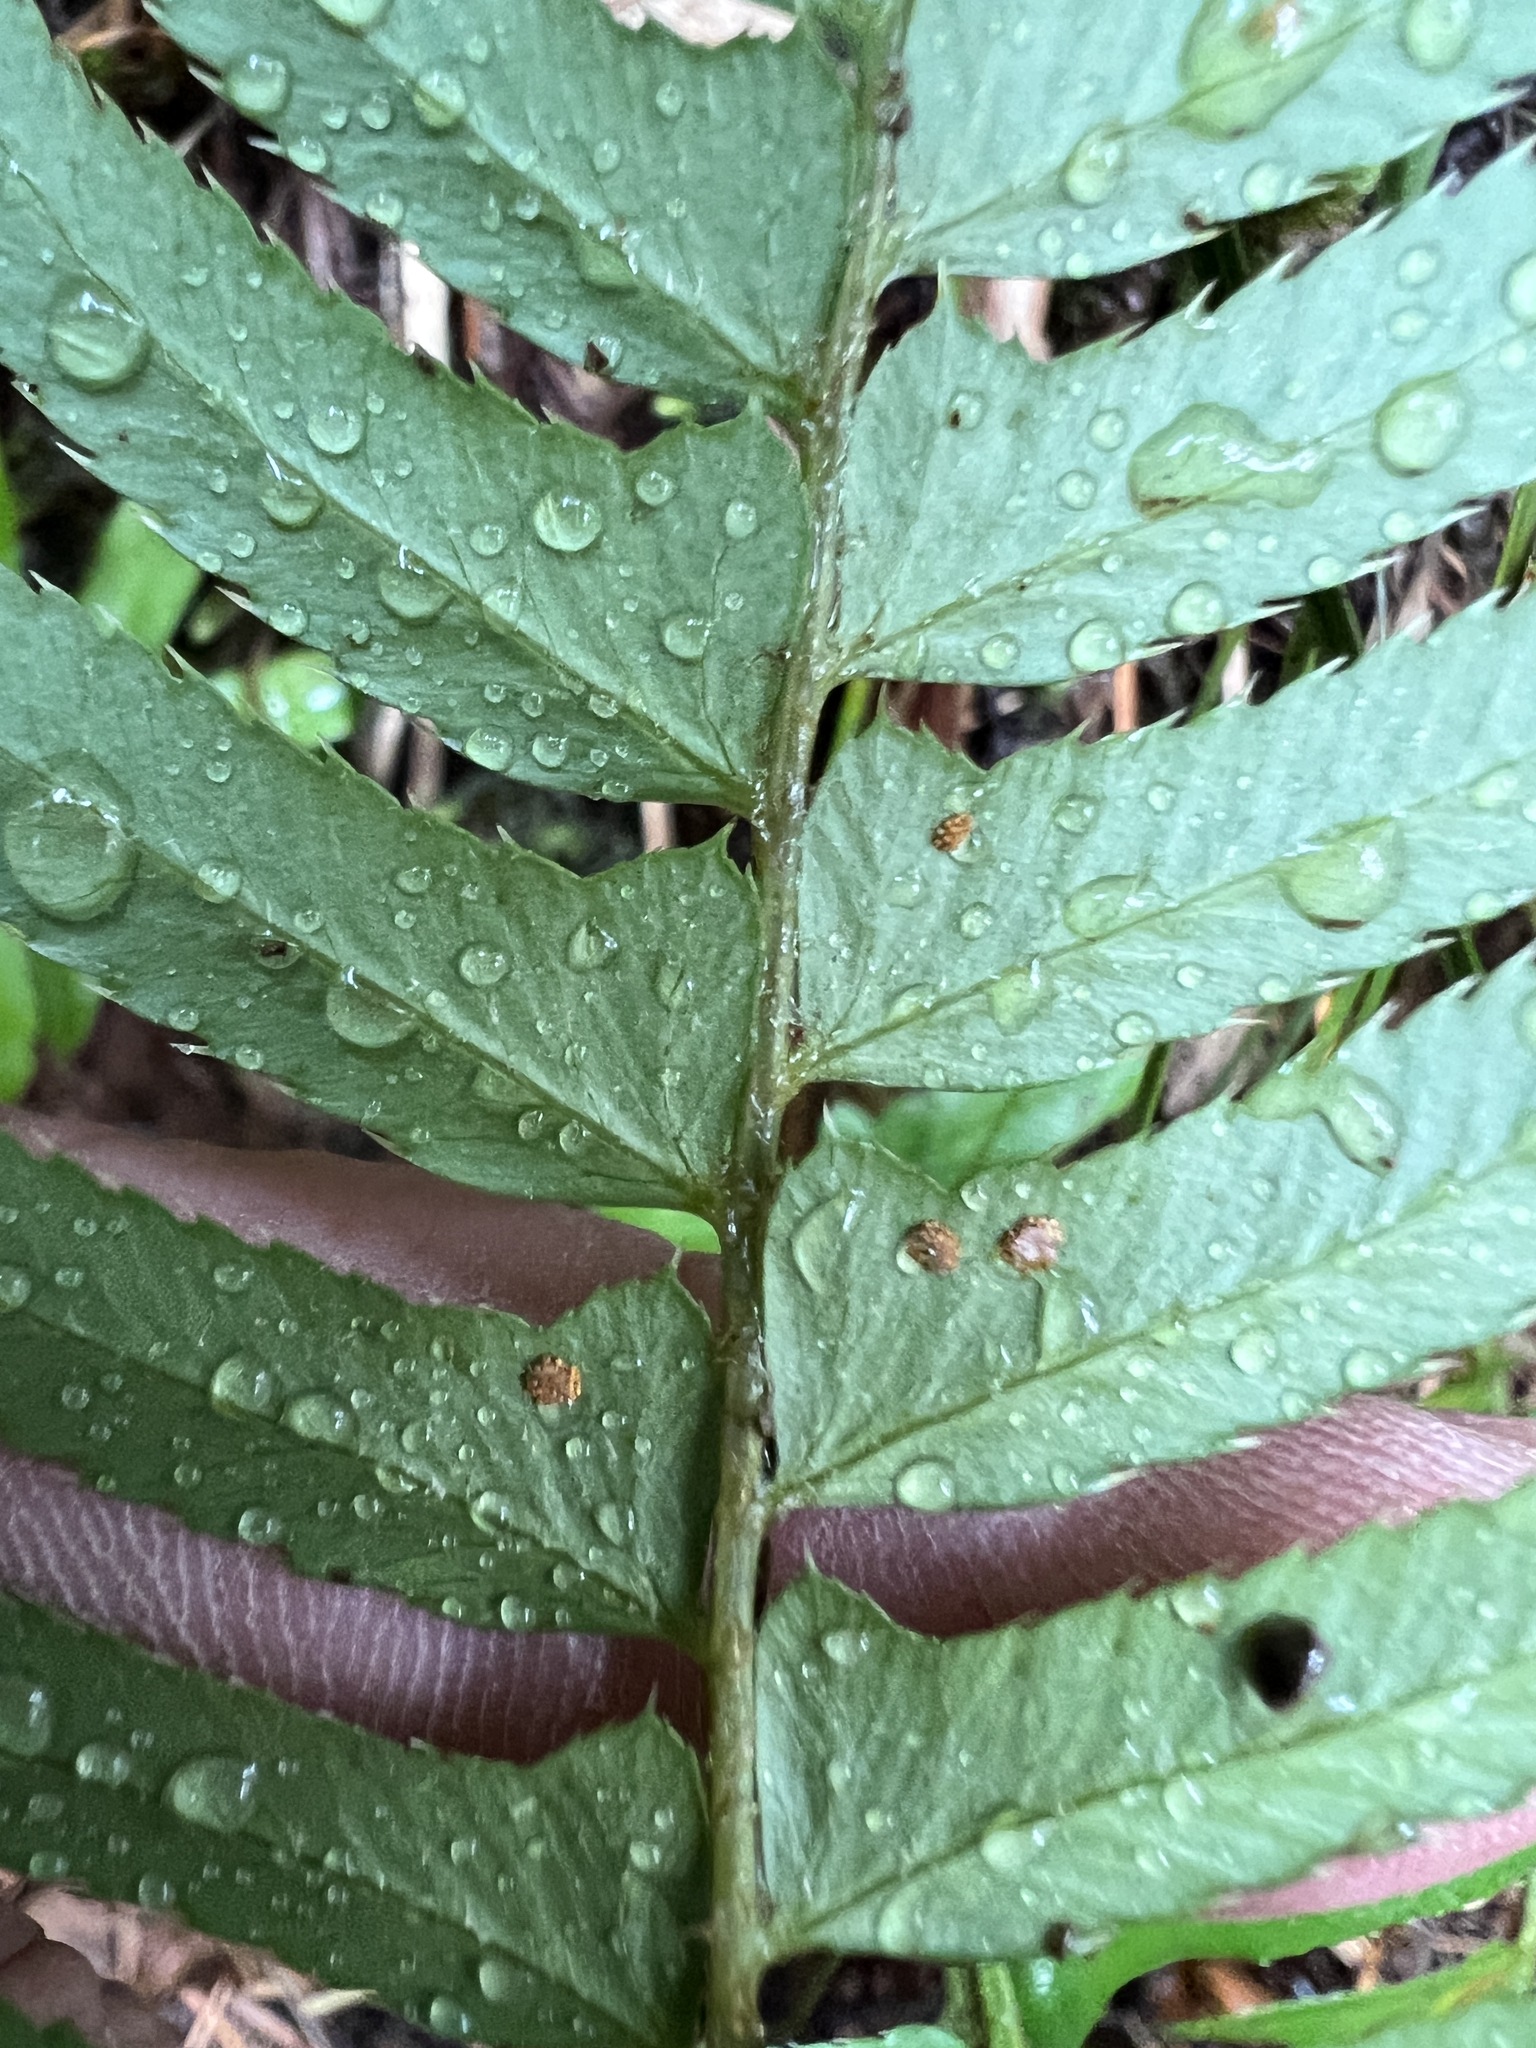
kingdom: Plantae
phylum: Tracheophyta
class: Polypodiopsida
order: Polypodiales
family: Dryopteridaceae
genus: Polystichum
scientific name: Polystichum munitum
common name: Western sword-fern
